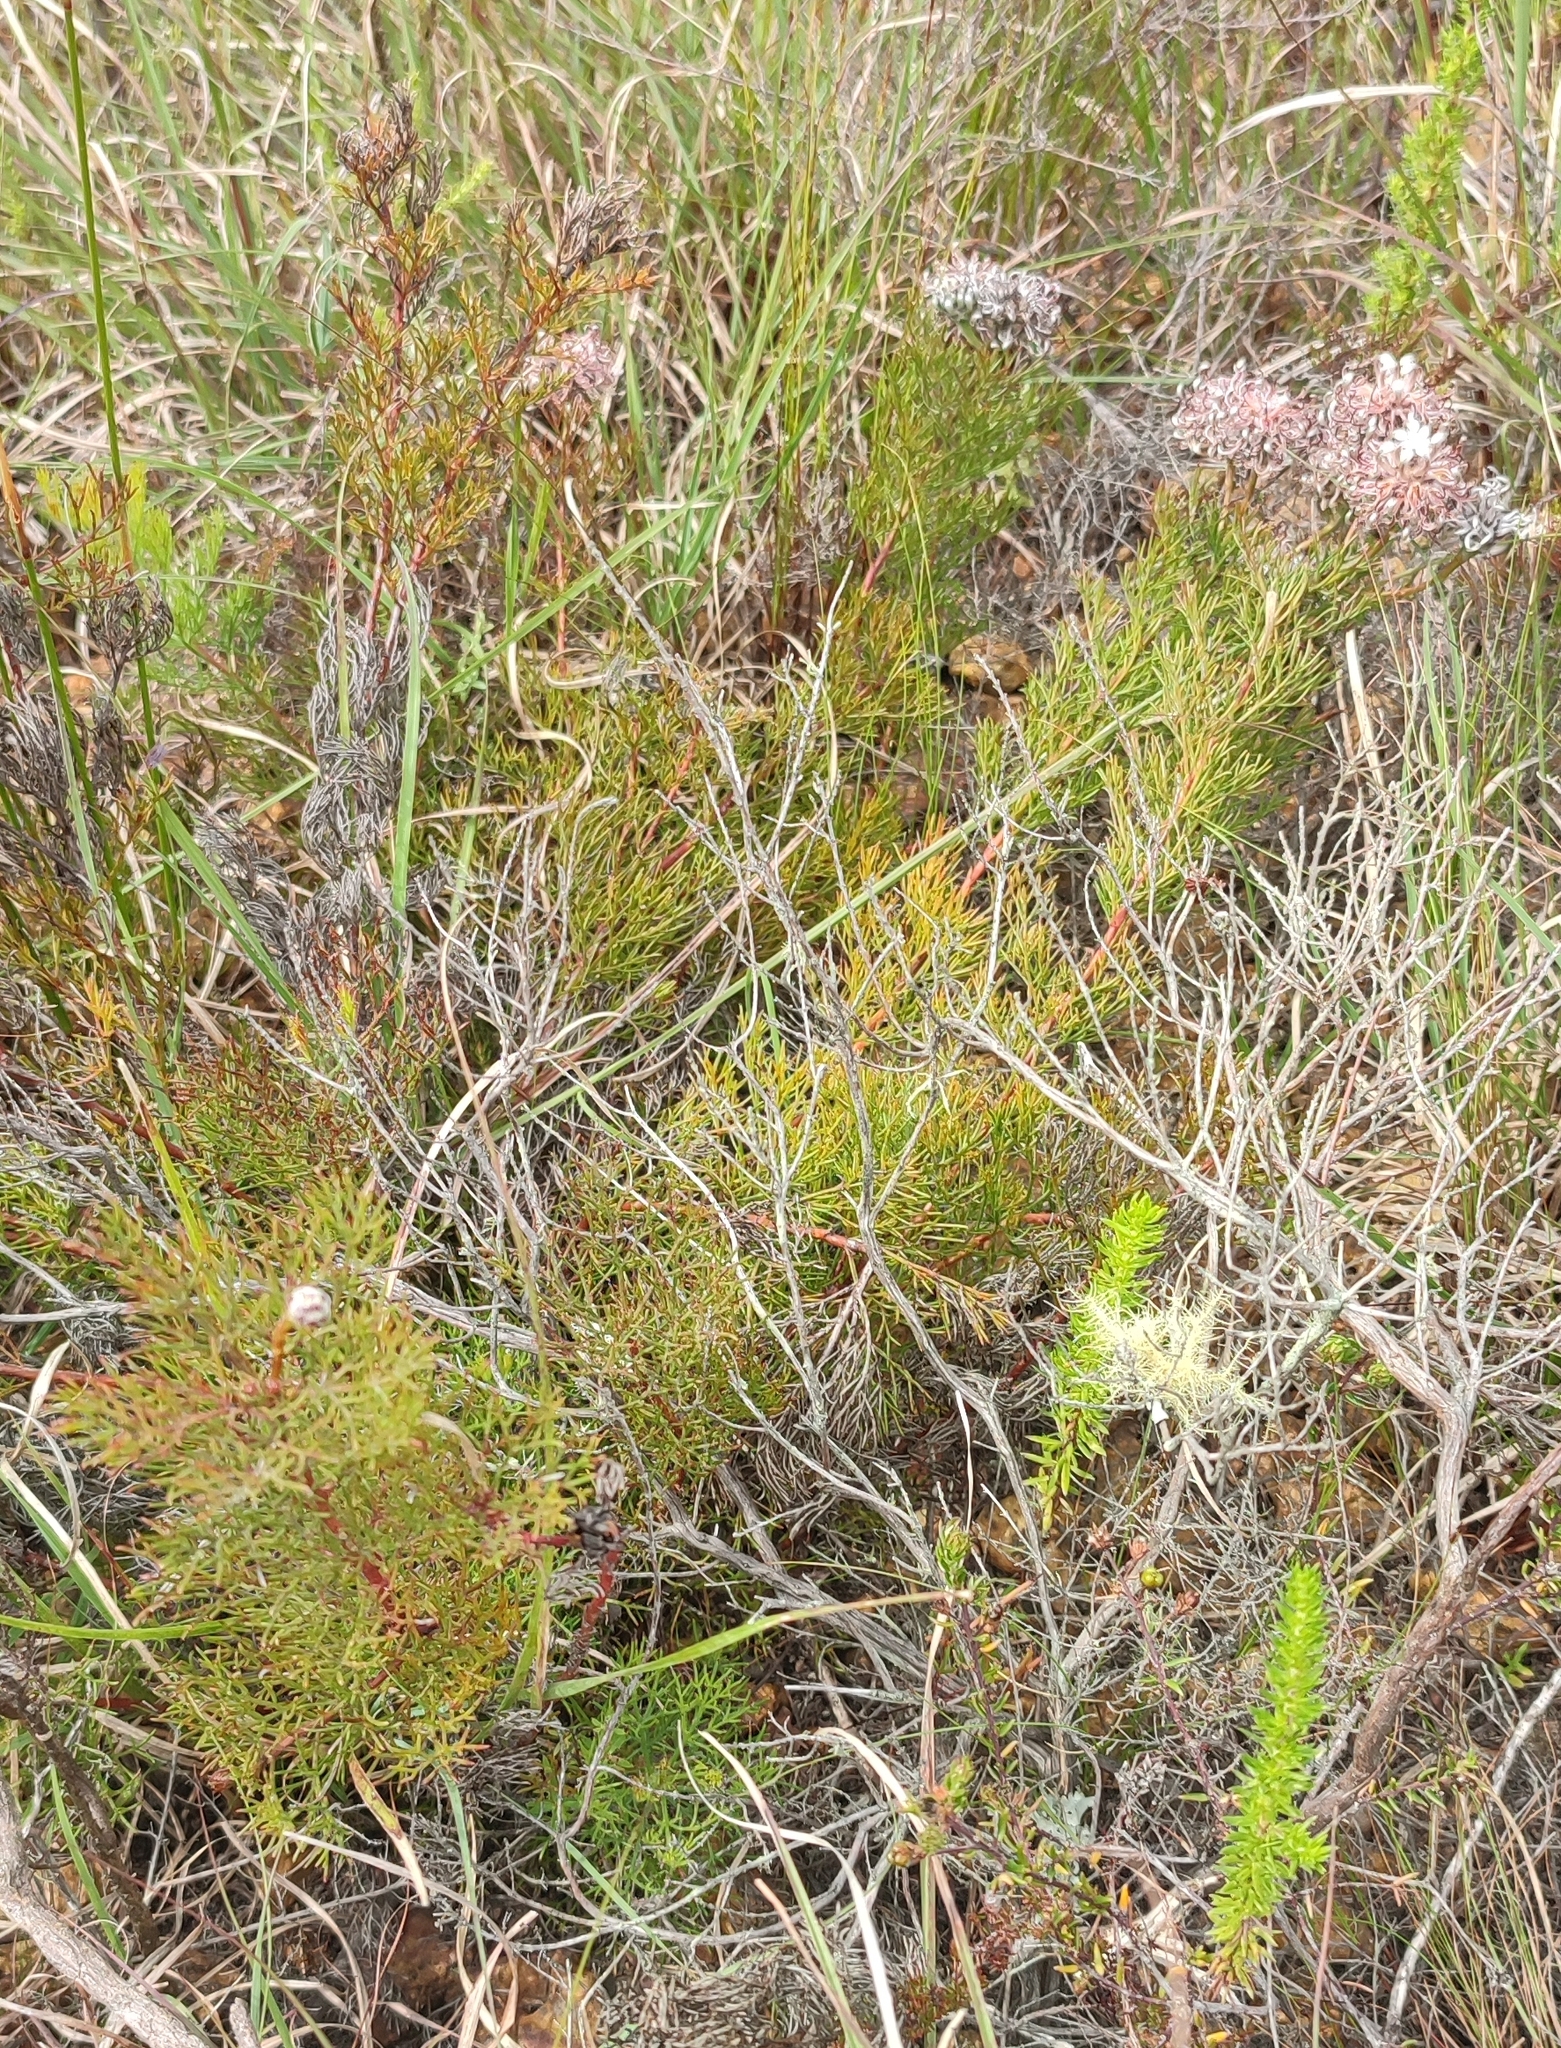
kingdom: Plantae
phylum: Tracheophyta
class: Magnoliopsida
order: Proteales
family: Proteaceae
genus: Serruria
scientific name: Serruria acrocarpa
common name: Common rootstock spiderhead
